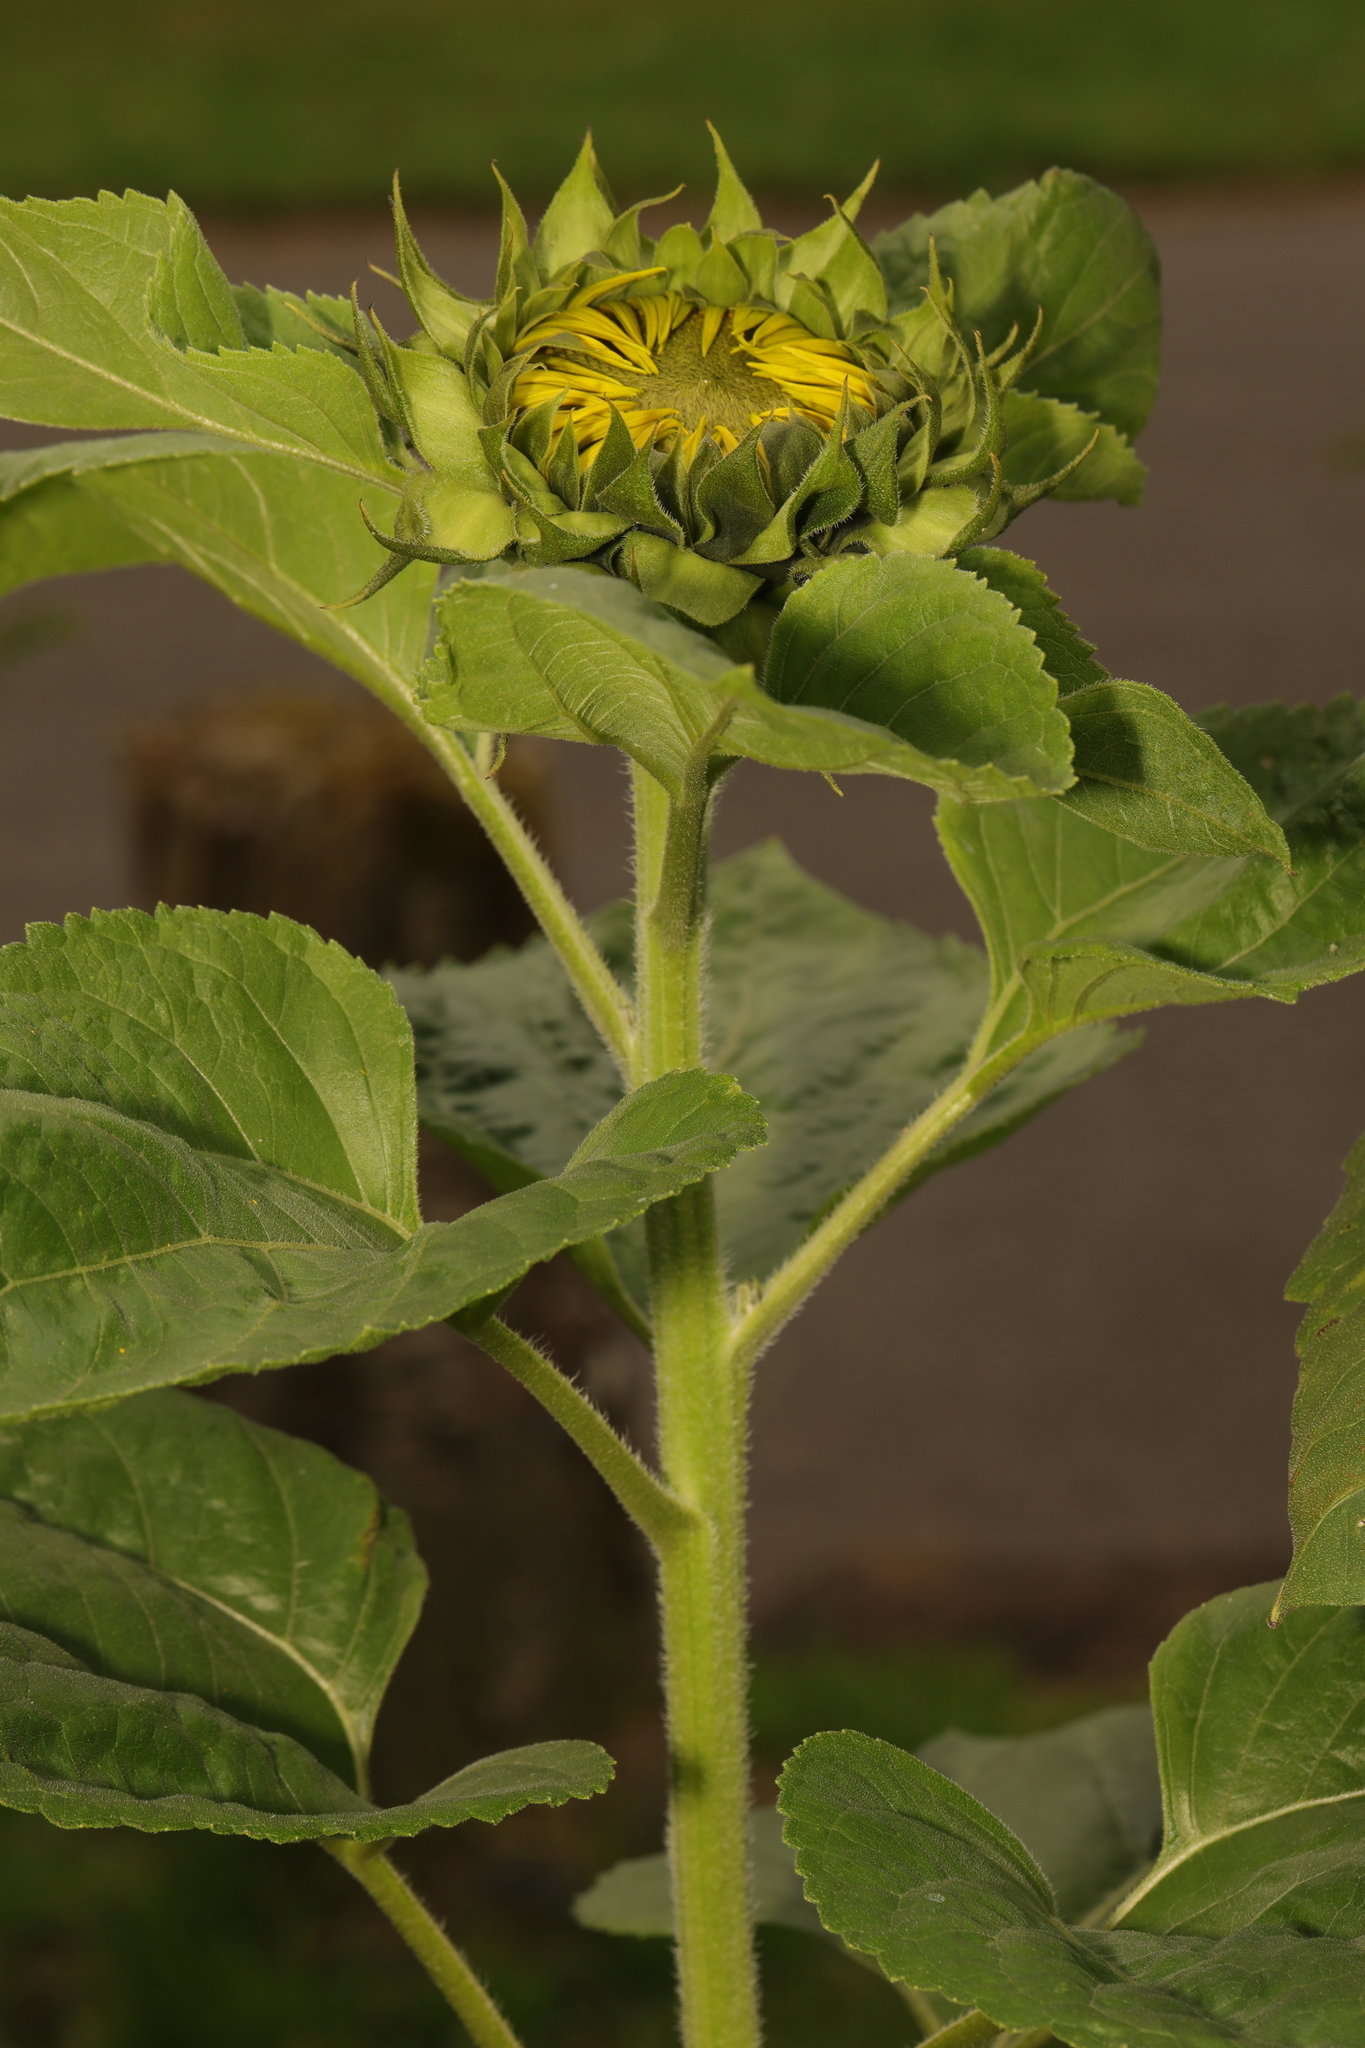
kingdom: Plantae
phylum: Tracheophyta
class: Magnoliopsida
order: Asterales
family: Asteraceae
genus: Helianthus
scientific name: Helianthus annuus
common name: Sunflower
